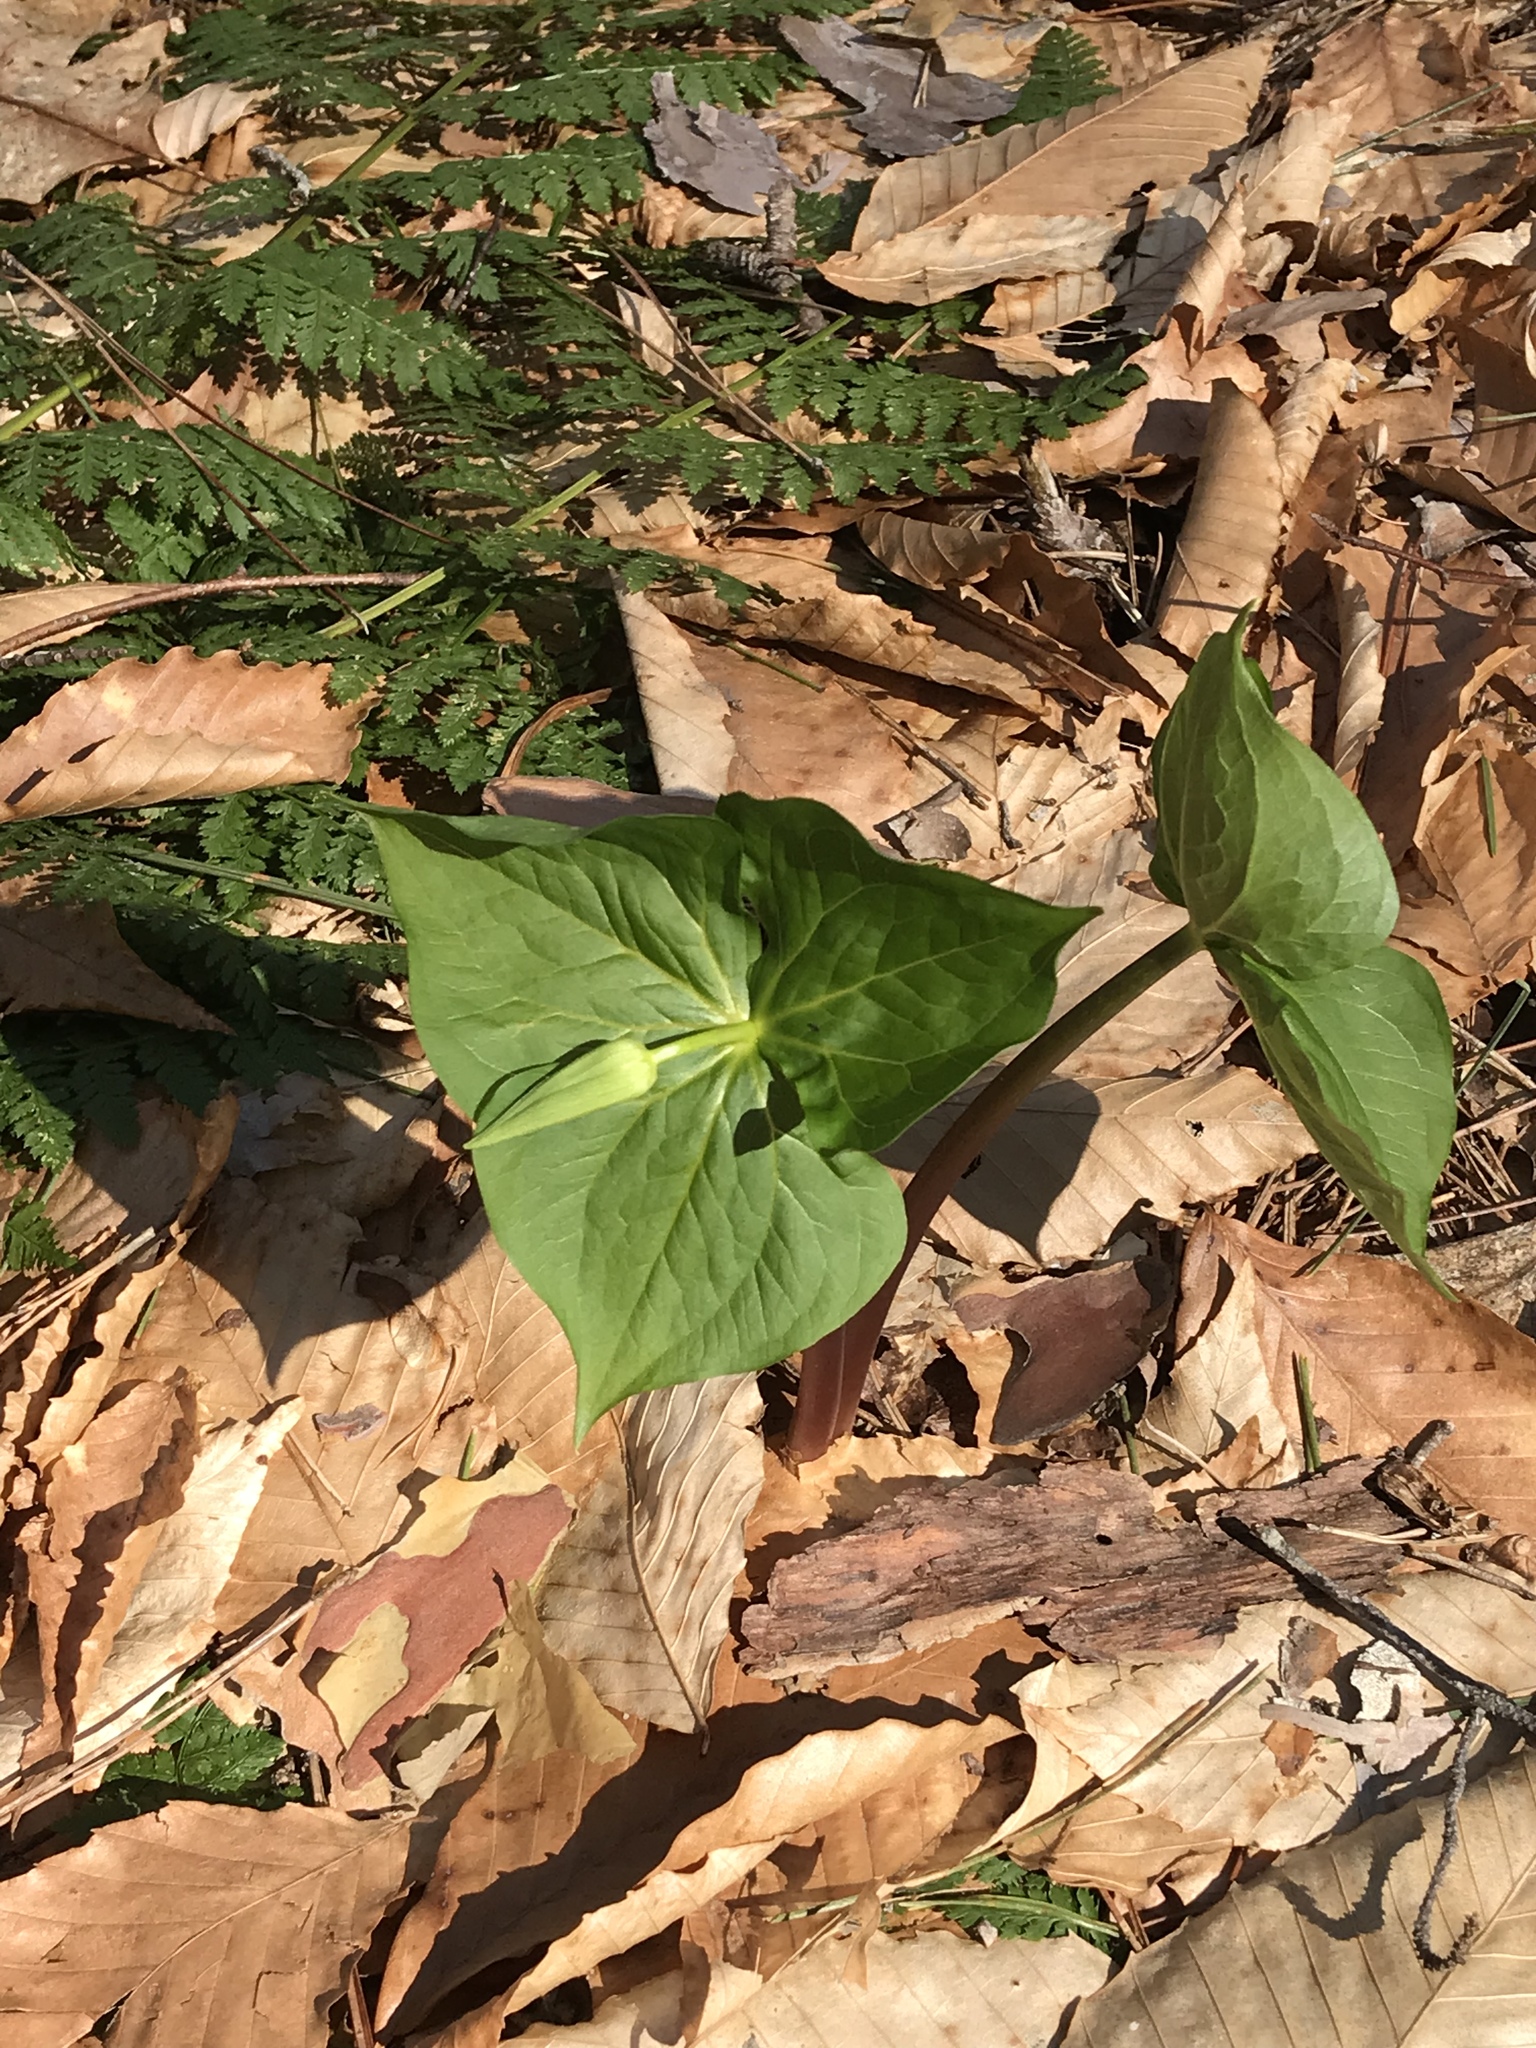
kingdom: Plantae
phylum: Tracheophyta
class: Liliopsida
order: Liliales
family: Melanthiaceae
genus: Trillium
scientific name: Trillium erectum
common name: Purple trillium
